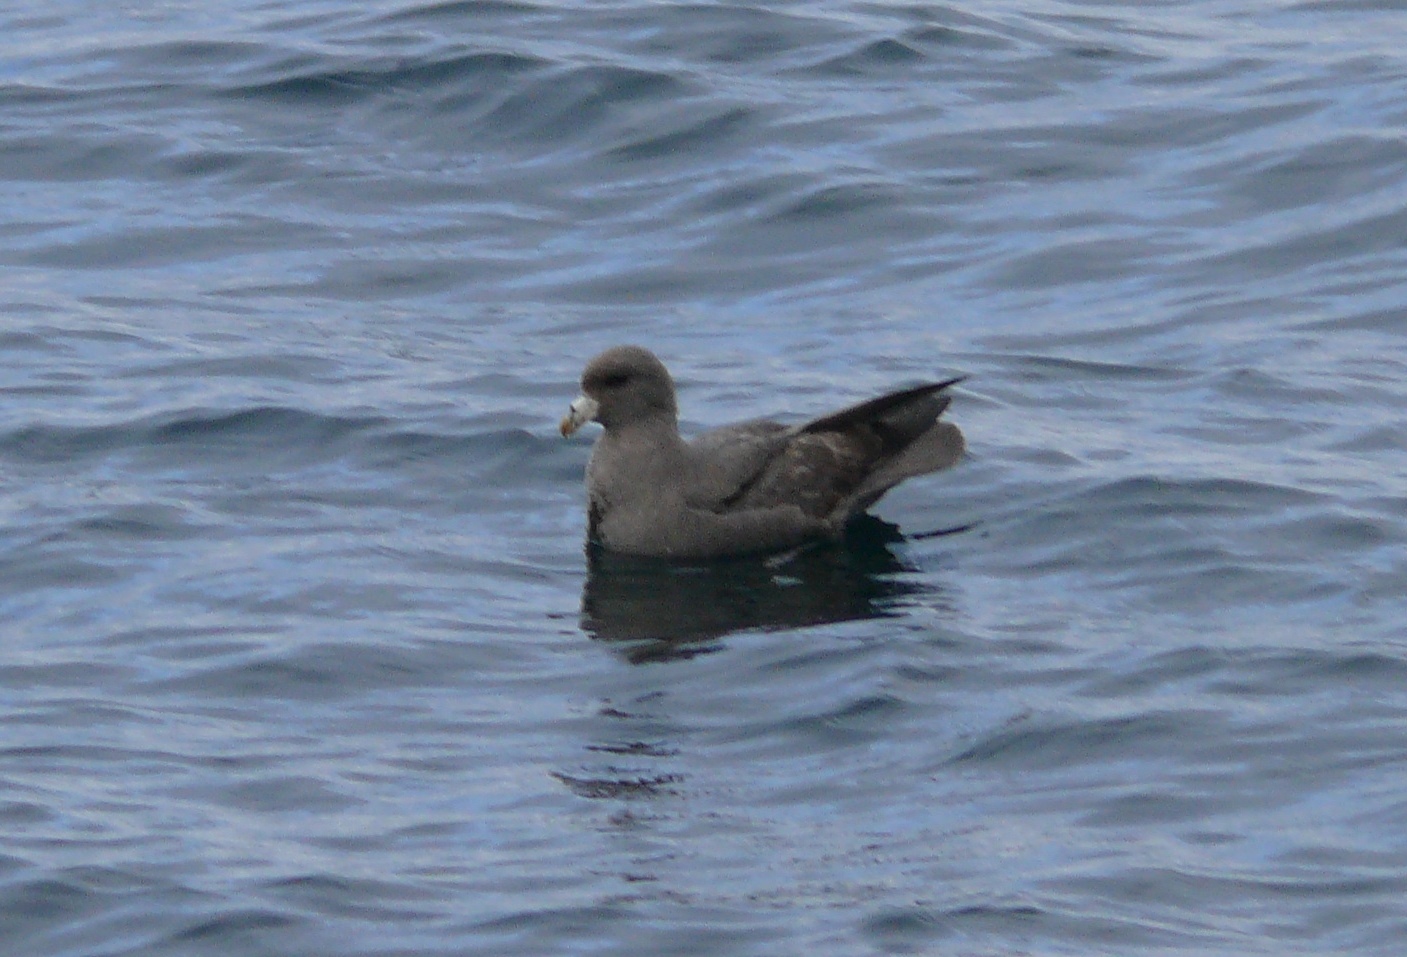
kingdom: Animalia
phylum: Chordata
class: Aves
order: Procellariiformes
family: Procellariidae
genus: Fulmarus
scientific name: Fulmarus glacialis
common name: Northern fulmar
